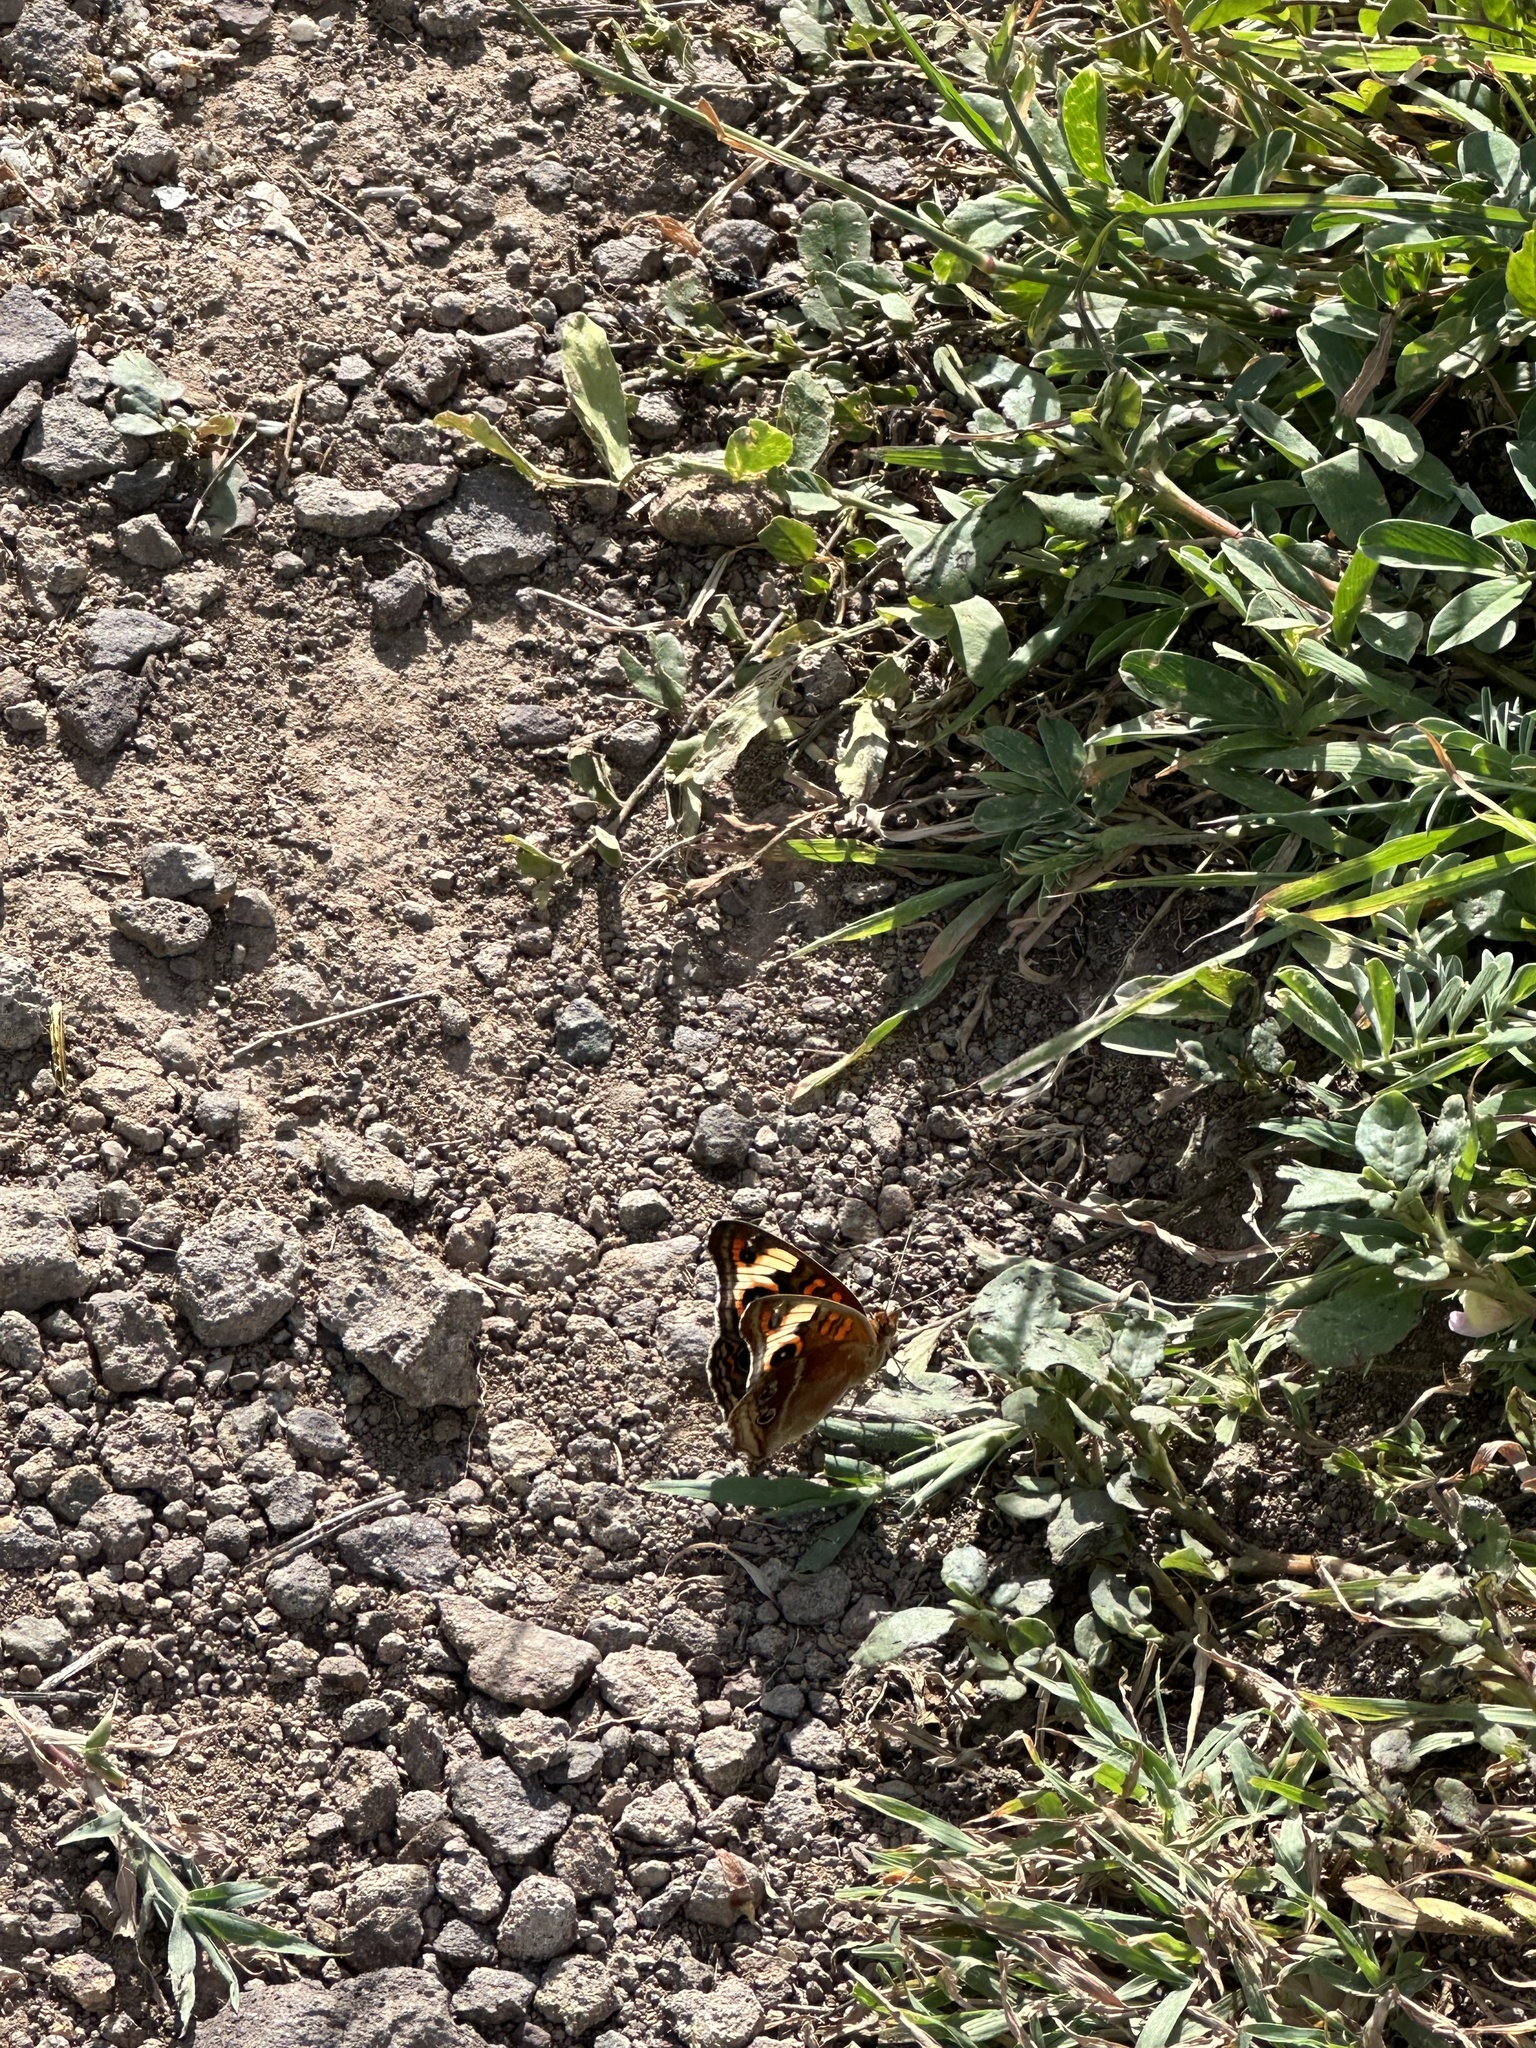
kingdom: Animalia
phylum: Arthropoda
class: Insecta
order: Lepidoptera
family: Nymphalidae
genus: Junonia
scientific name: Junonia lavinia
